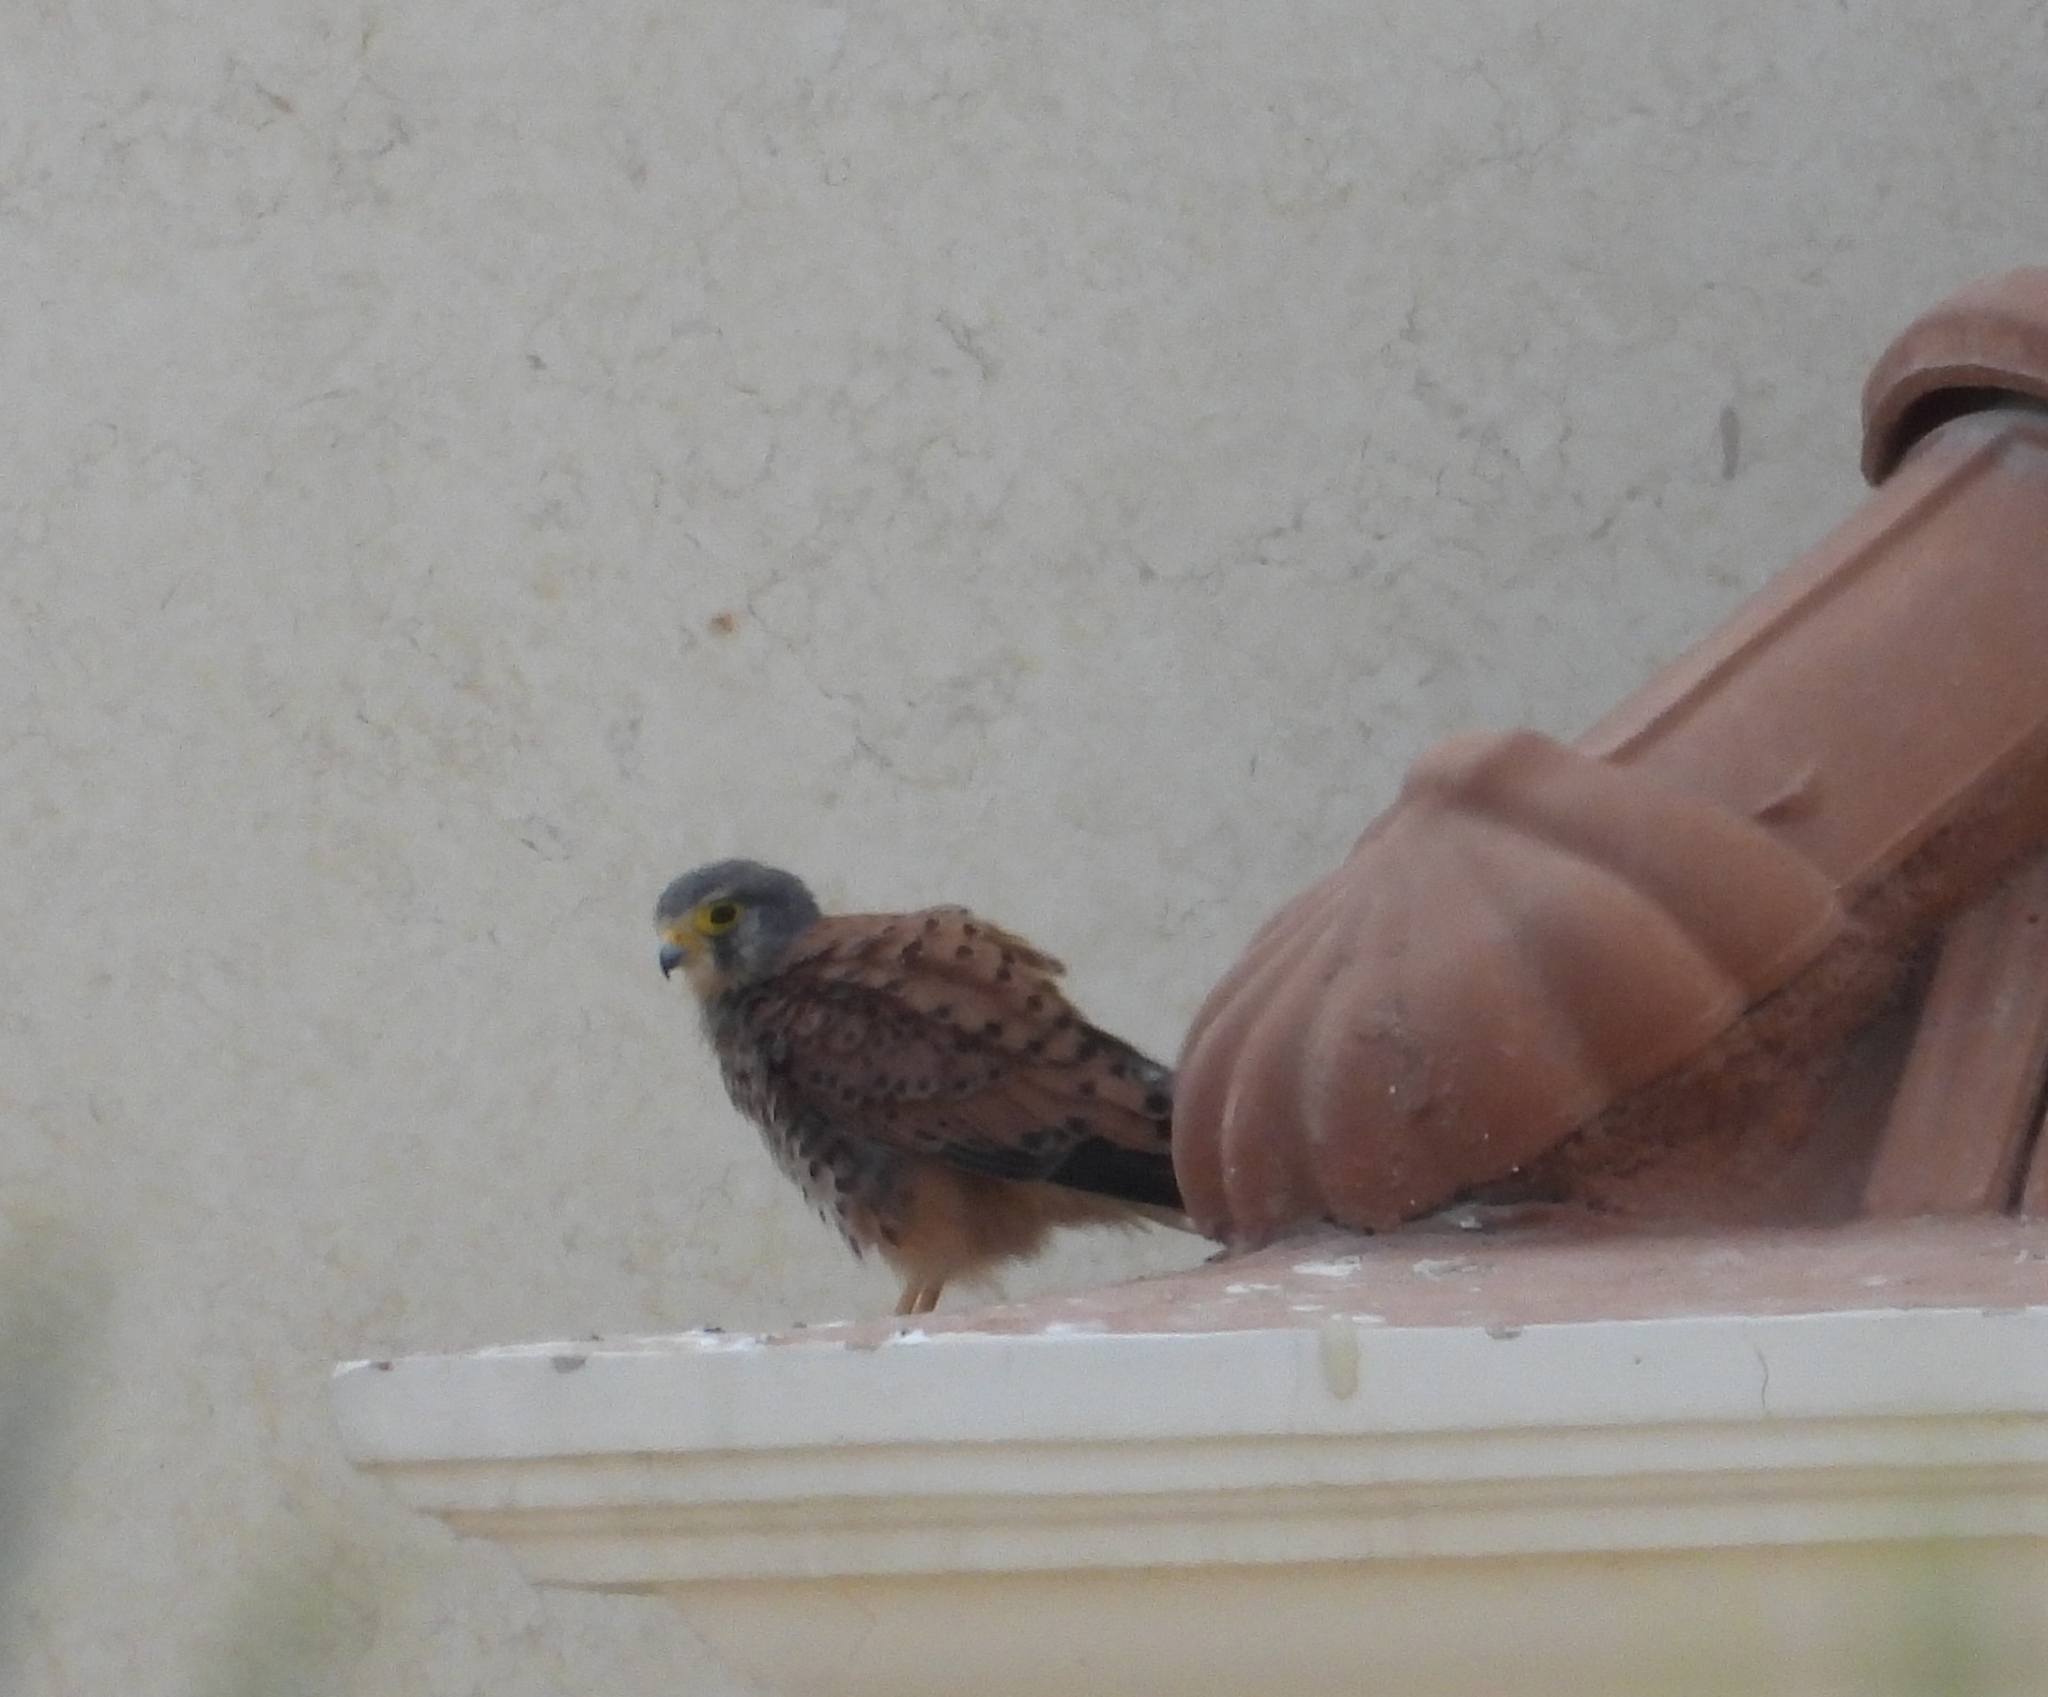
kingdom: Animalia
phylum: Chordata
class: Aves
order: Falconiformes
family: Falconidae
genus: Falco
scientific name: Falco tinnunculus
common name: Common kestrel
